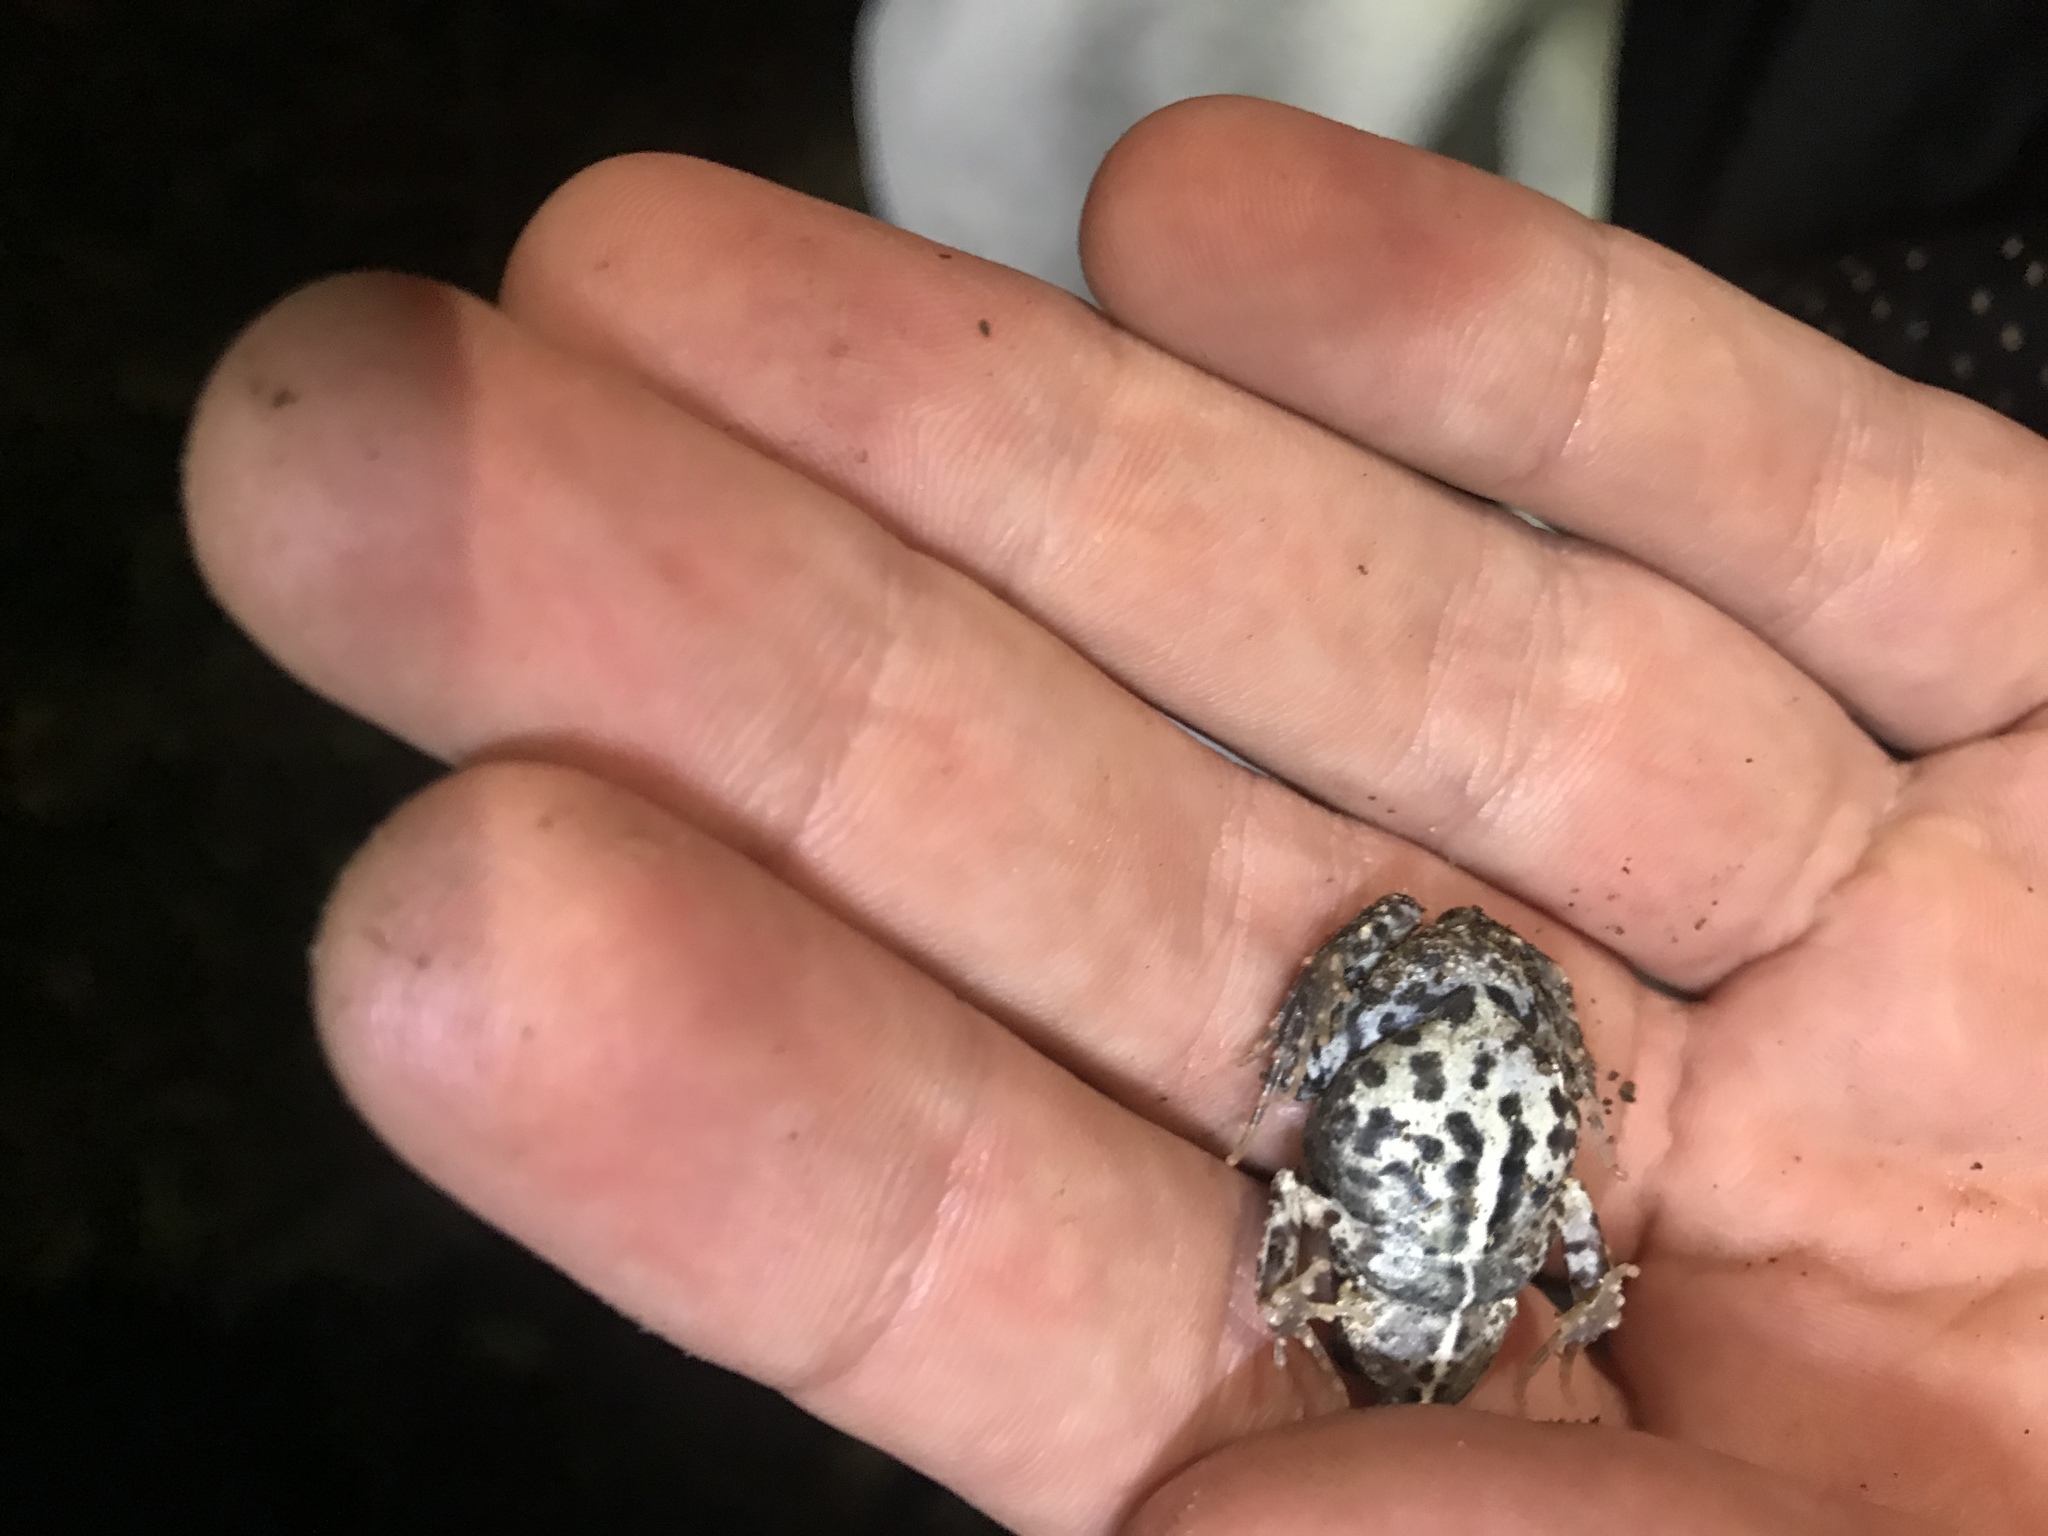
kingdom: Animalia
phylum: Chordata
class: Amphibia
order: Anura
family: Leptodactylidae
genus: Engystomops
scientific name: Engystomops pustulosus
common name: Tungara frog
